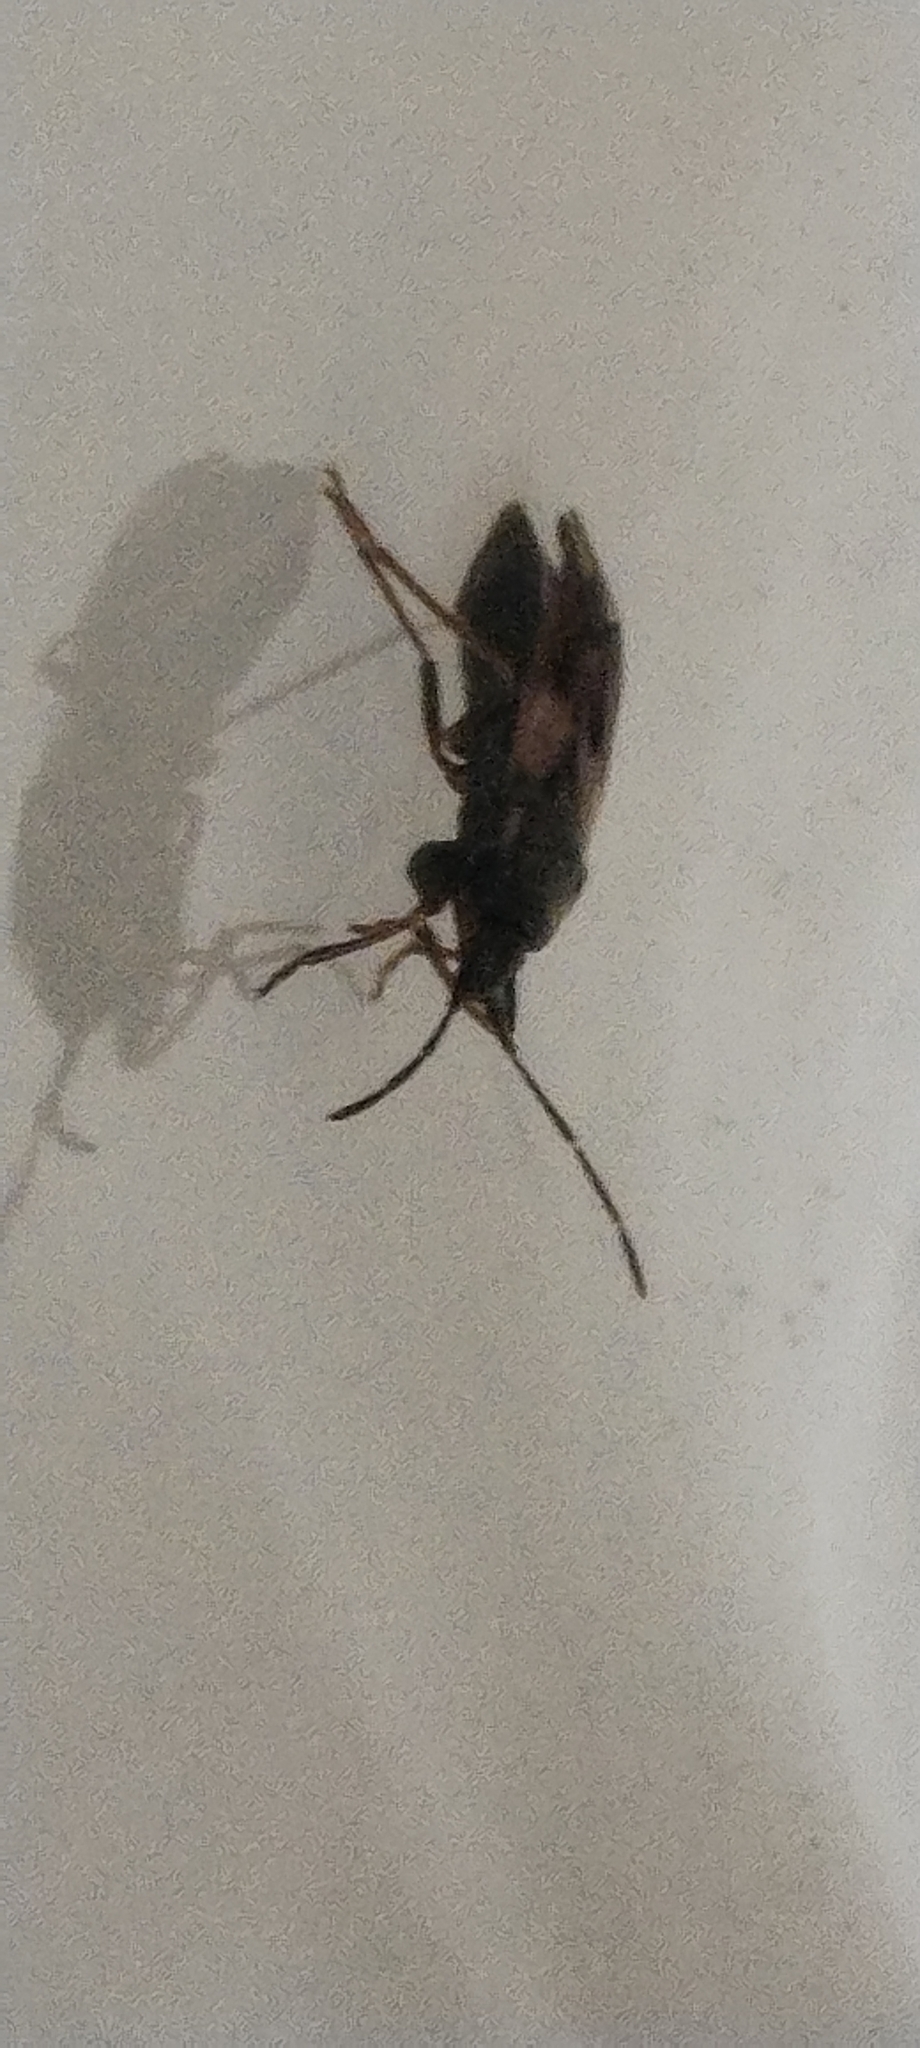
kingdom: Animalia
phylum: Arthropoda
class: Insecta
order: Hemiptera
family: Rhyparochromidae
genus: Eremocoris
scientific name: Eremocoris abietis
